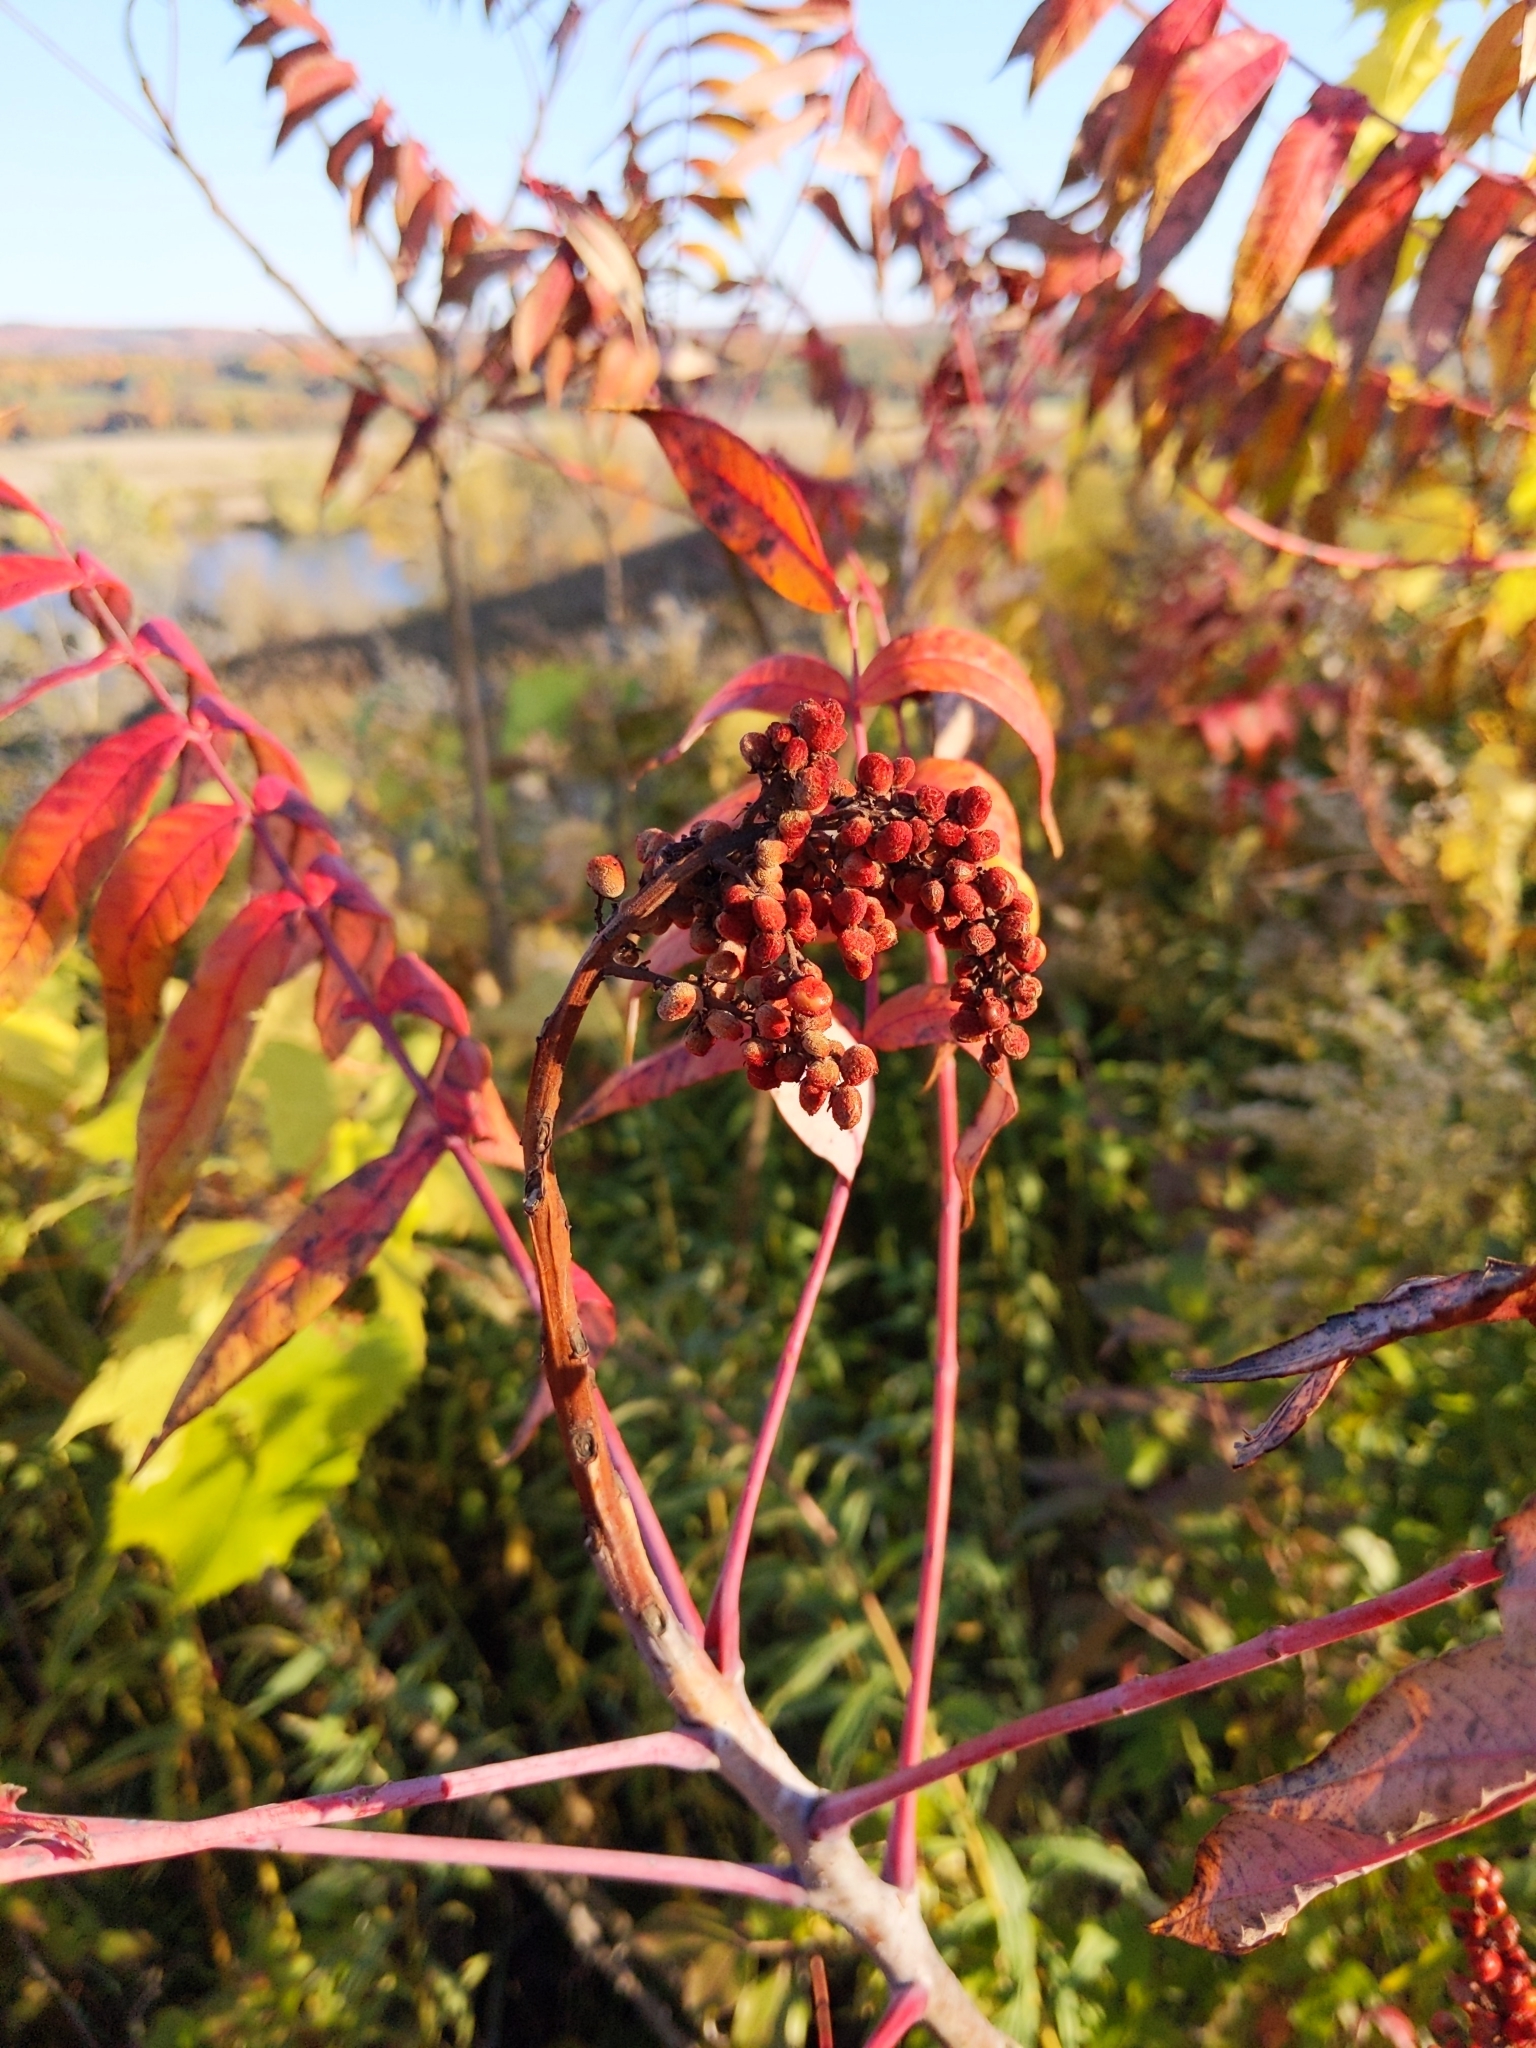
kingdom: Plantae
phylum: Tracheophyta
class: Magnoliopsida
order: Sapindales
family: Anacardiaceae
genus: Rhus
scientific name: Rhus glabra
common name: Scarlet sumac
